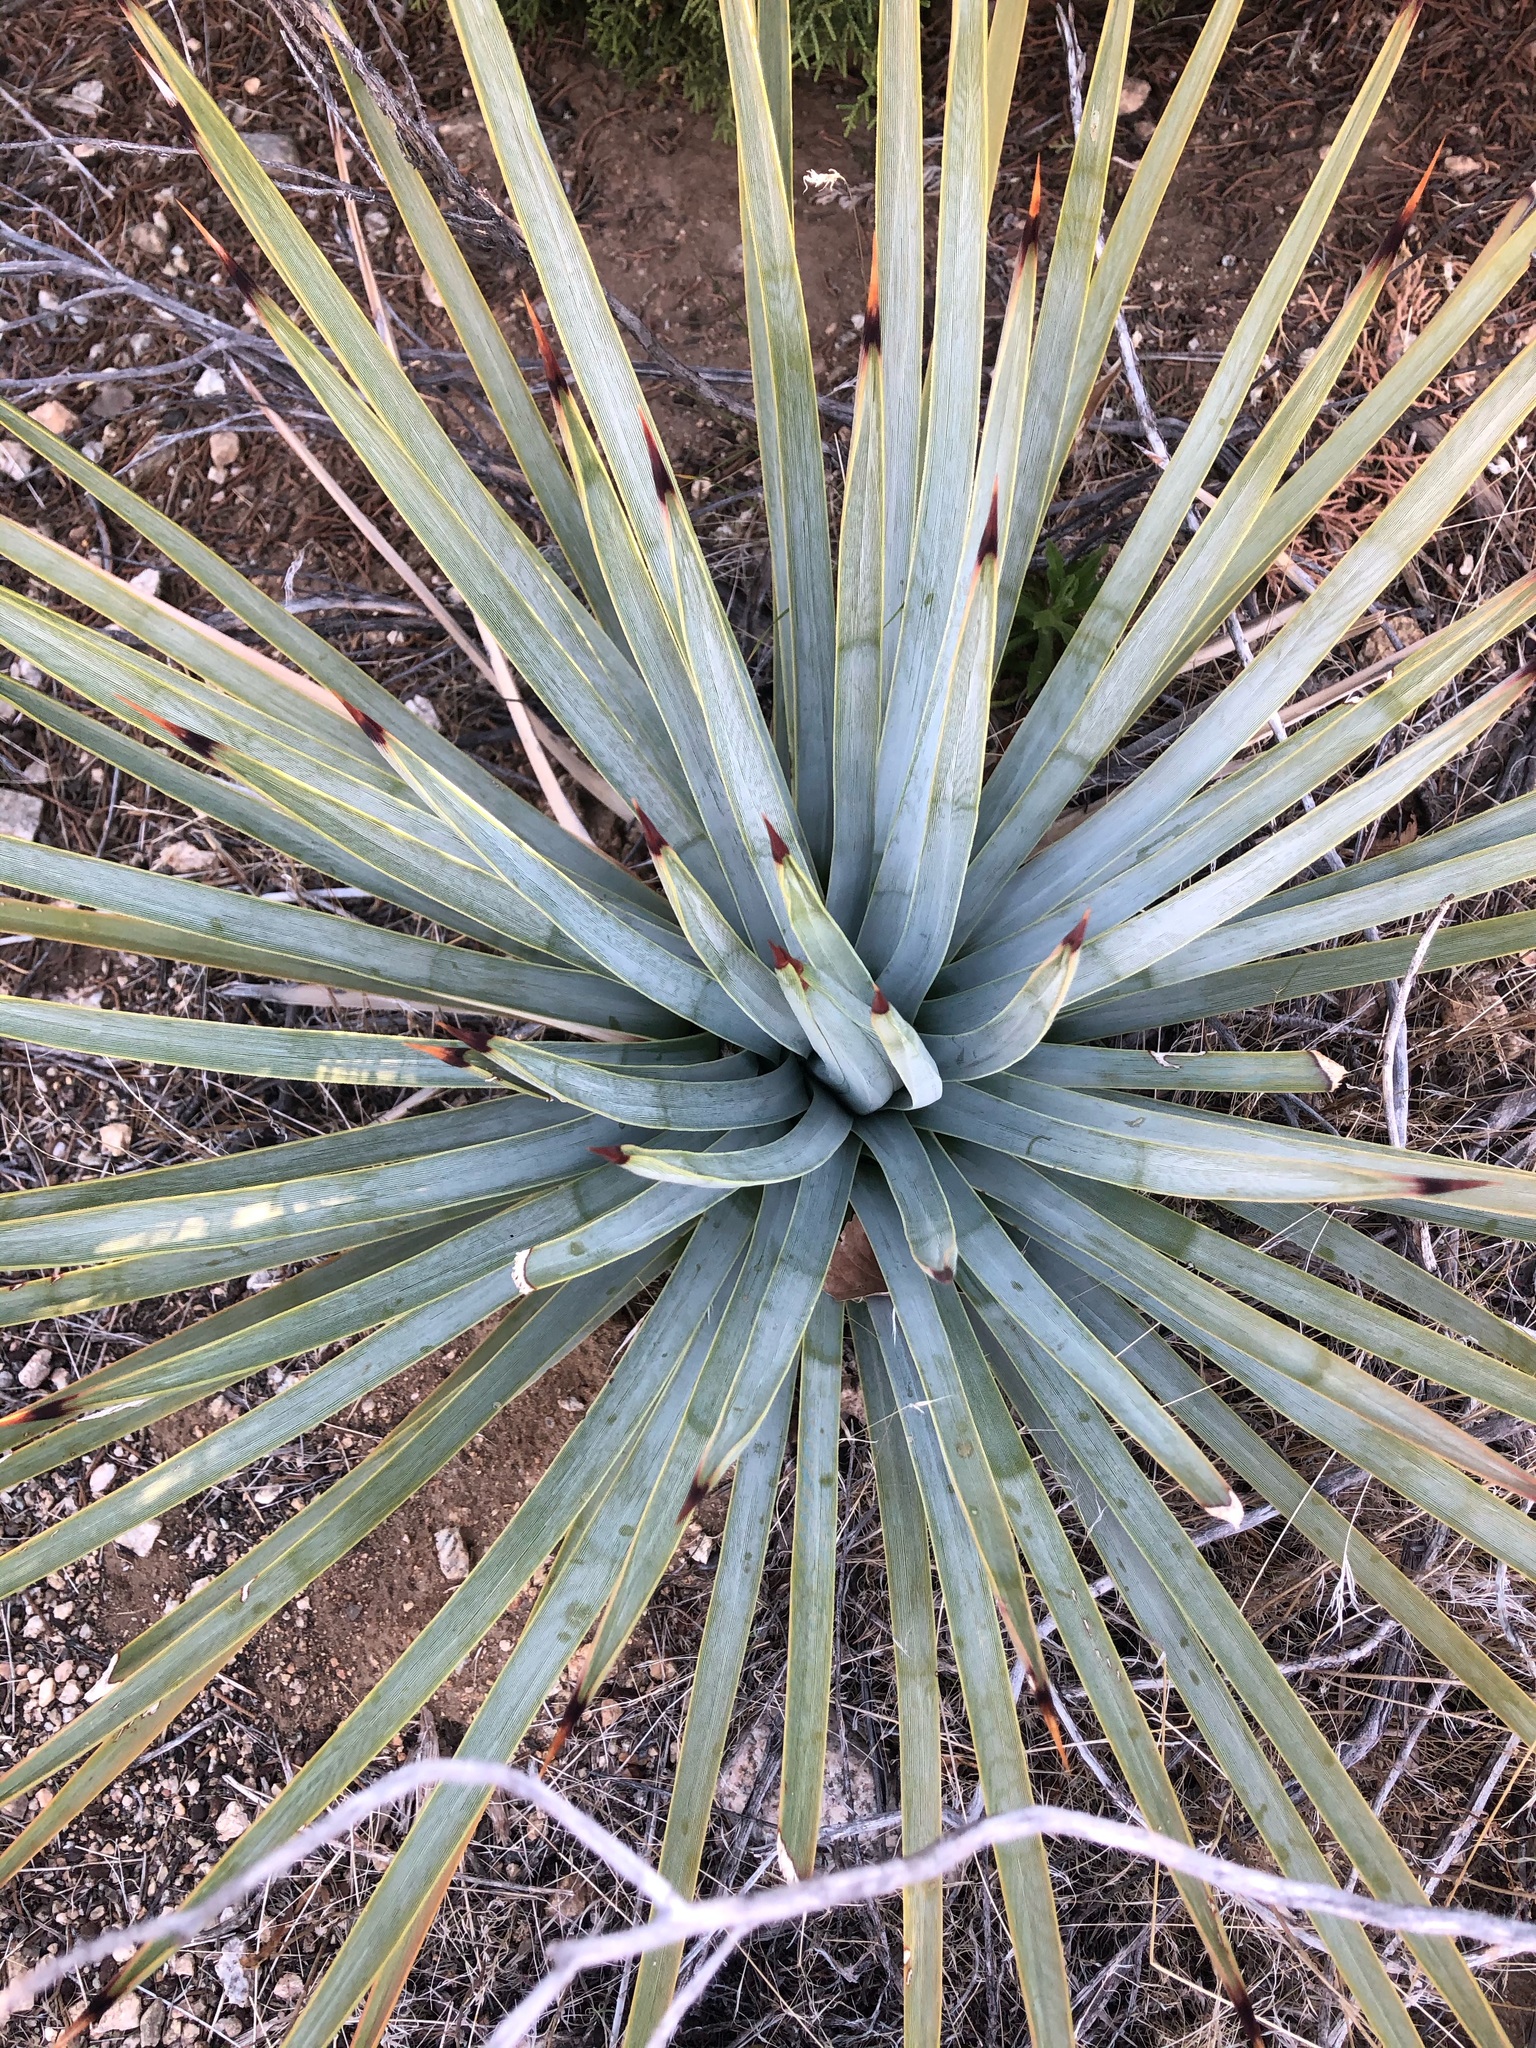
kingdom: Plantae
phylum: Tracheophyta
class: Liliopsida
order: Asparagales
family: Asparagaceae
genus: Hesperoyucca
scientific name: Hesperoyucca whipplei
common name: Our lord's-candle
